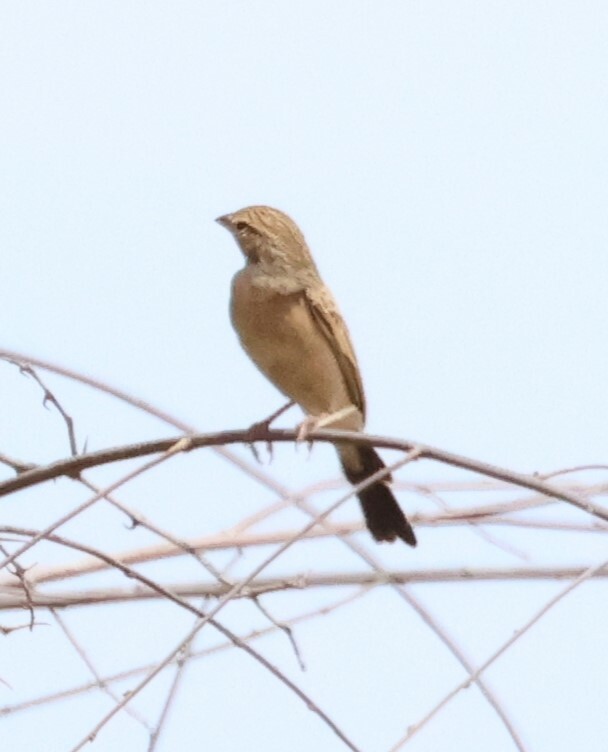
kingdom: Animalia
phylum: Chordata
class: Aves
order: Passeriformes
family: Emberizidae
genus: Emberiza
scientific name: Emberiza impetuani
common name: Lark-like bunting
